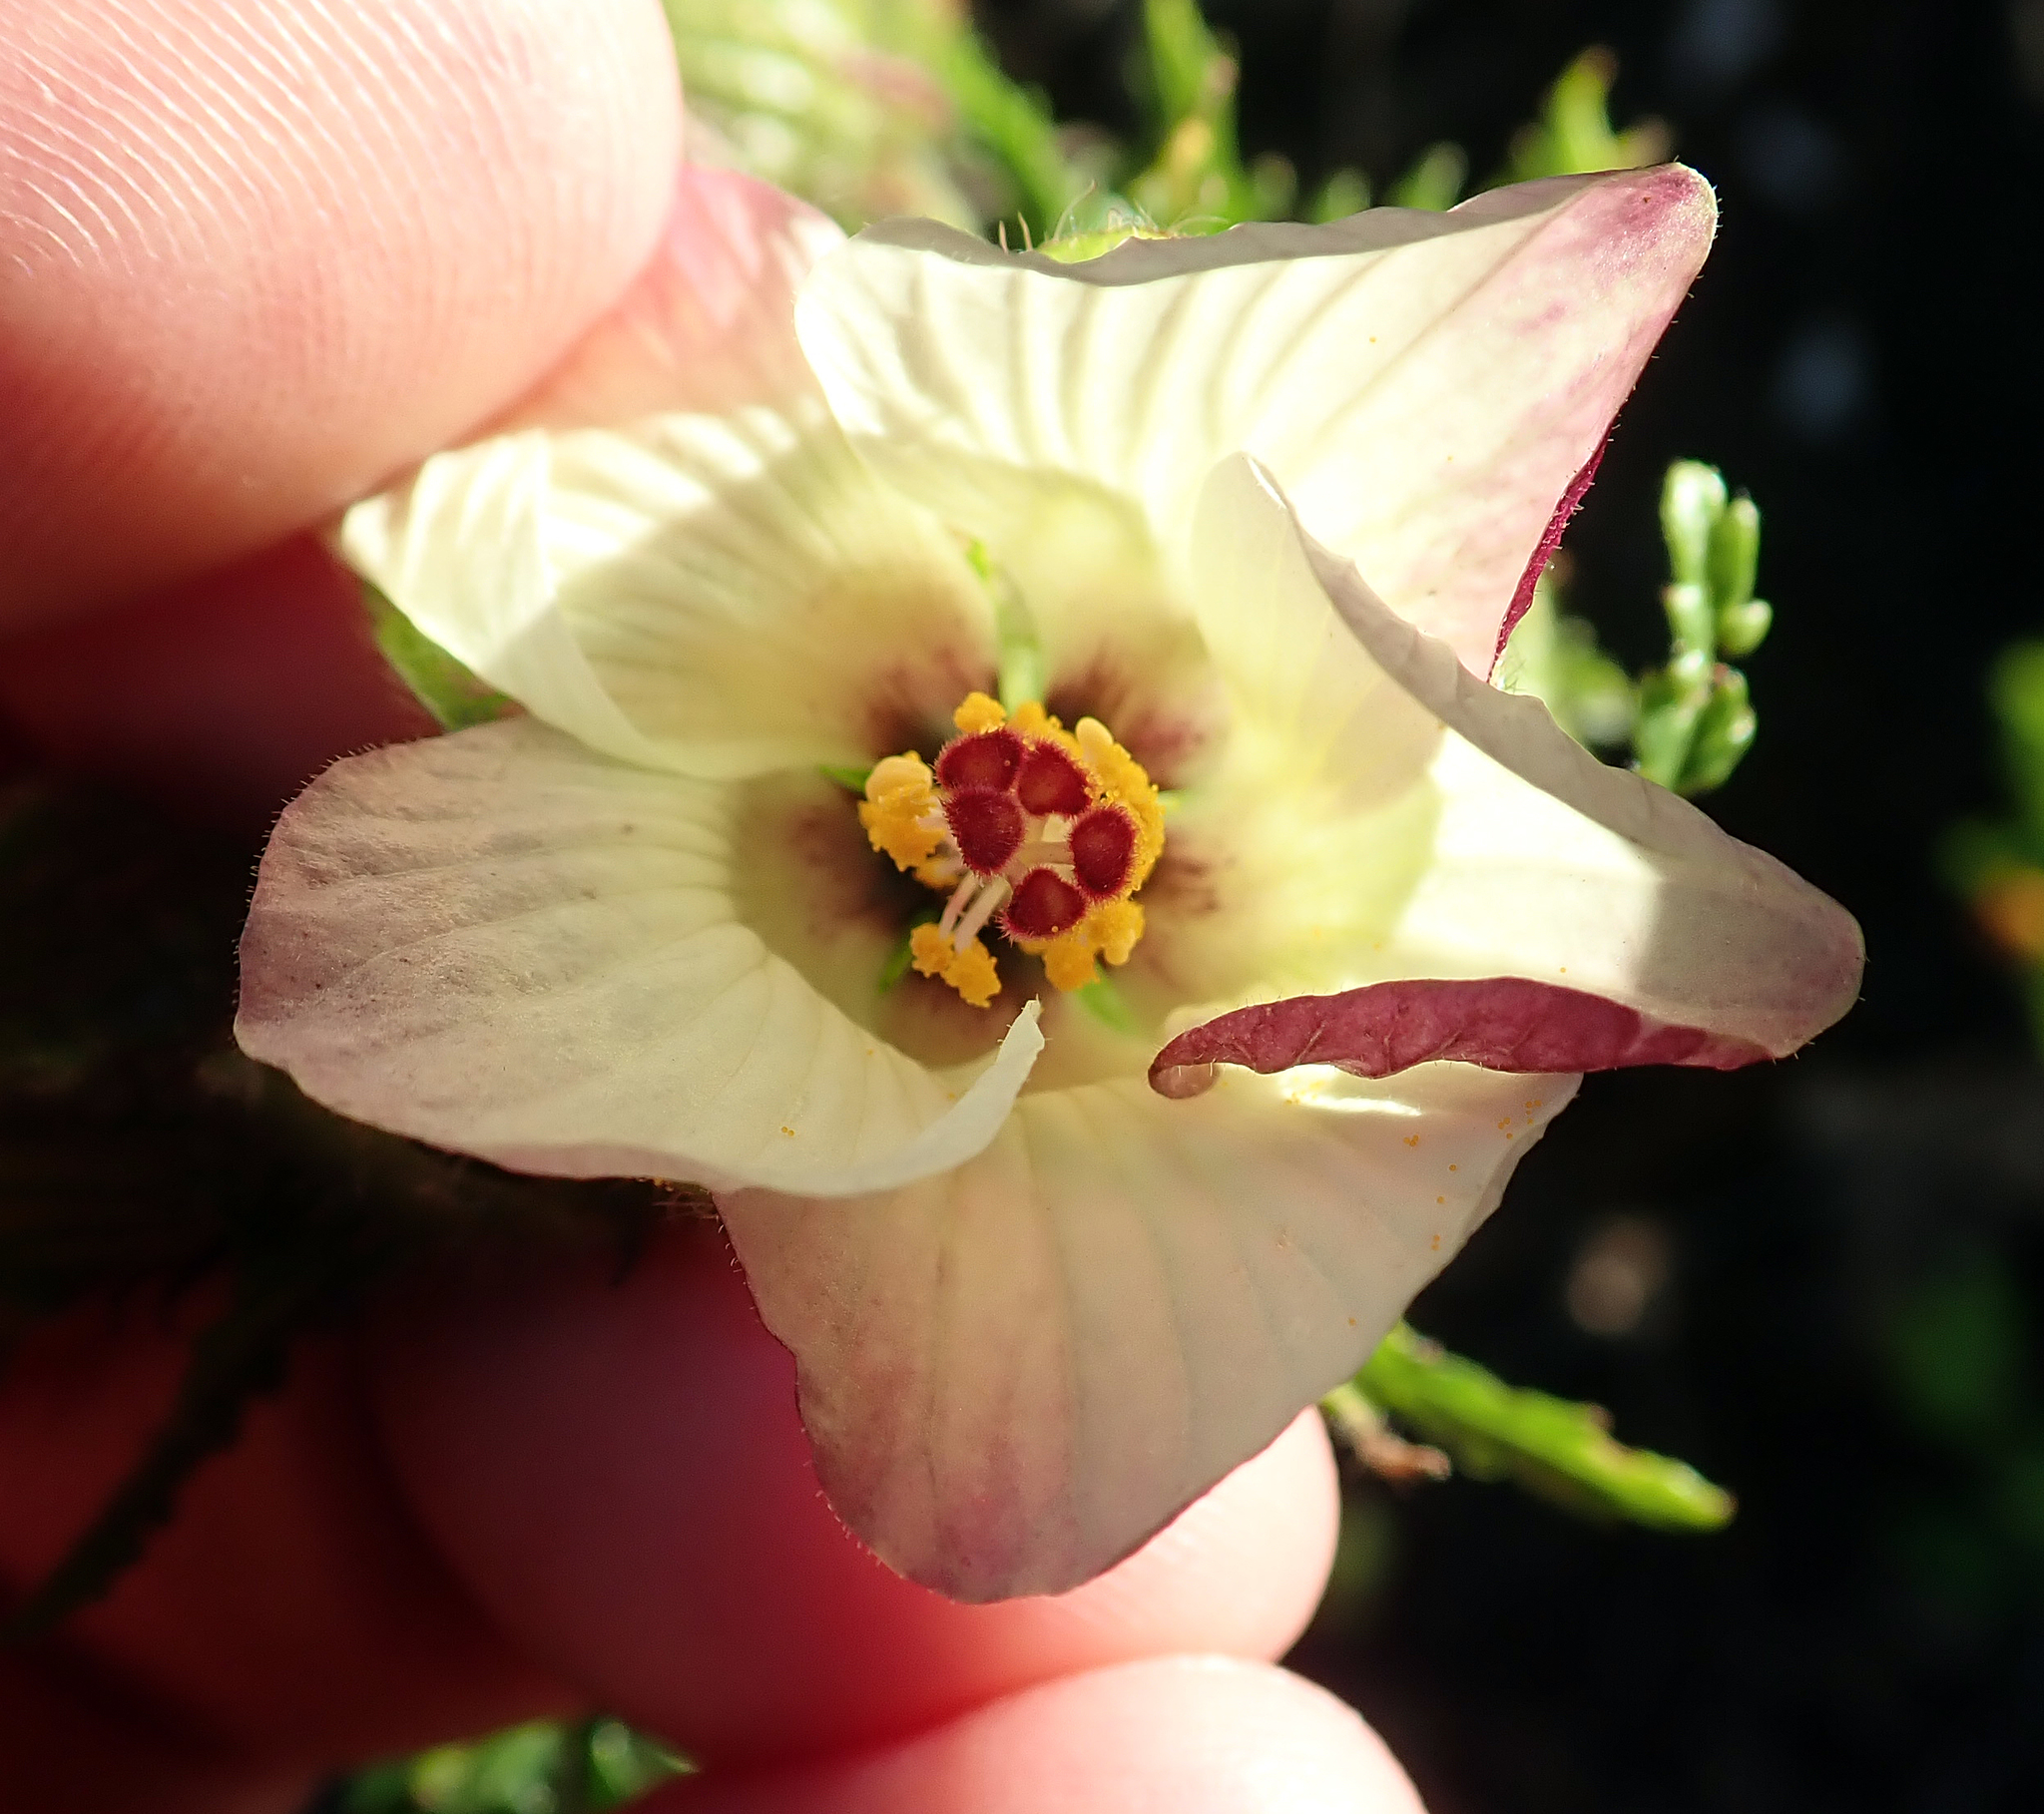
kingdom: Plantae
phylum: Tracheophyta
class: Magnoliopsida
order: Malvales
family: Malvaceae
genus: Hibiscus
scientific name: Hibiscus richardsonii
